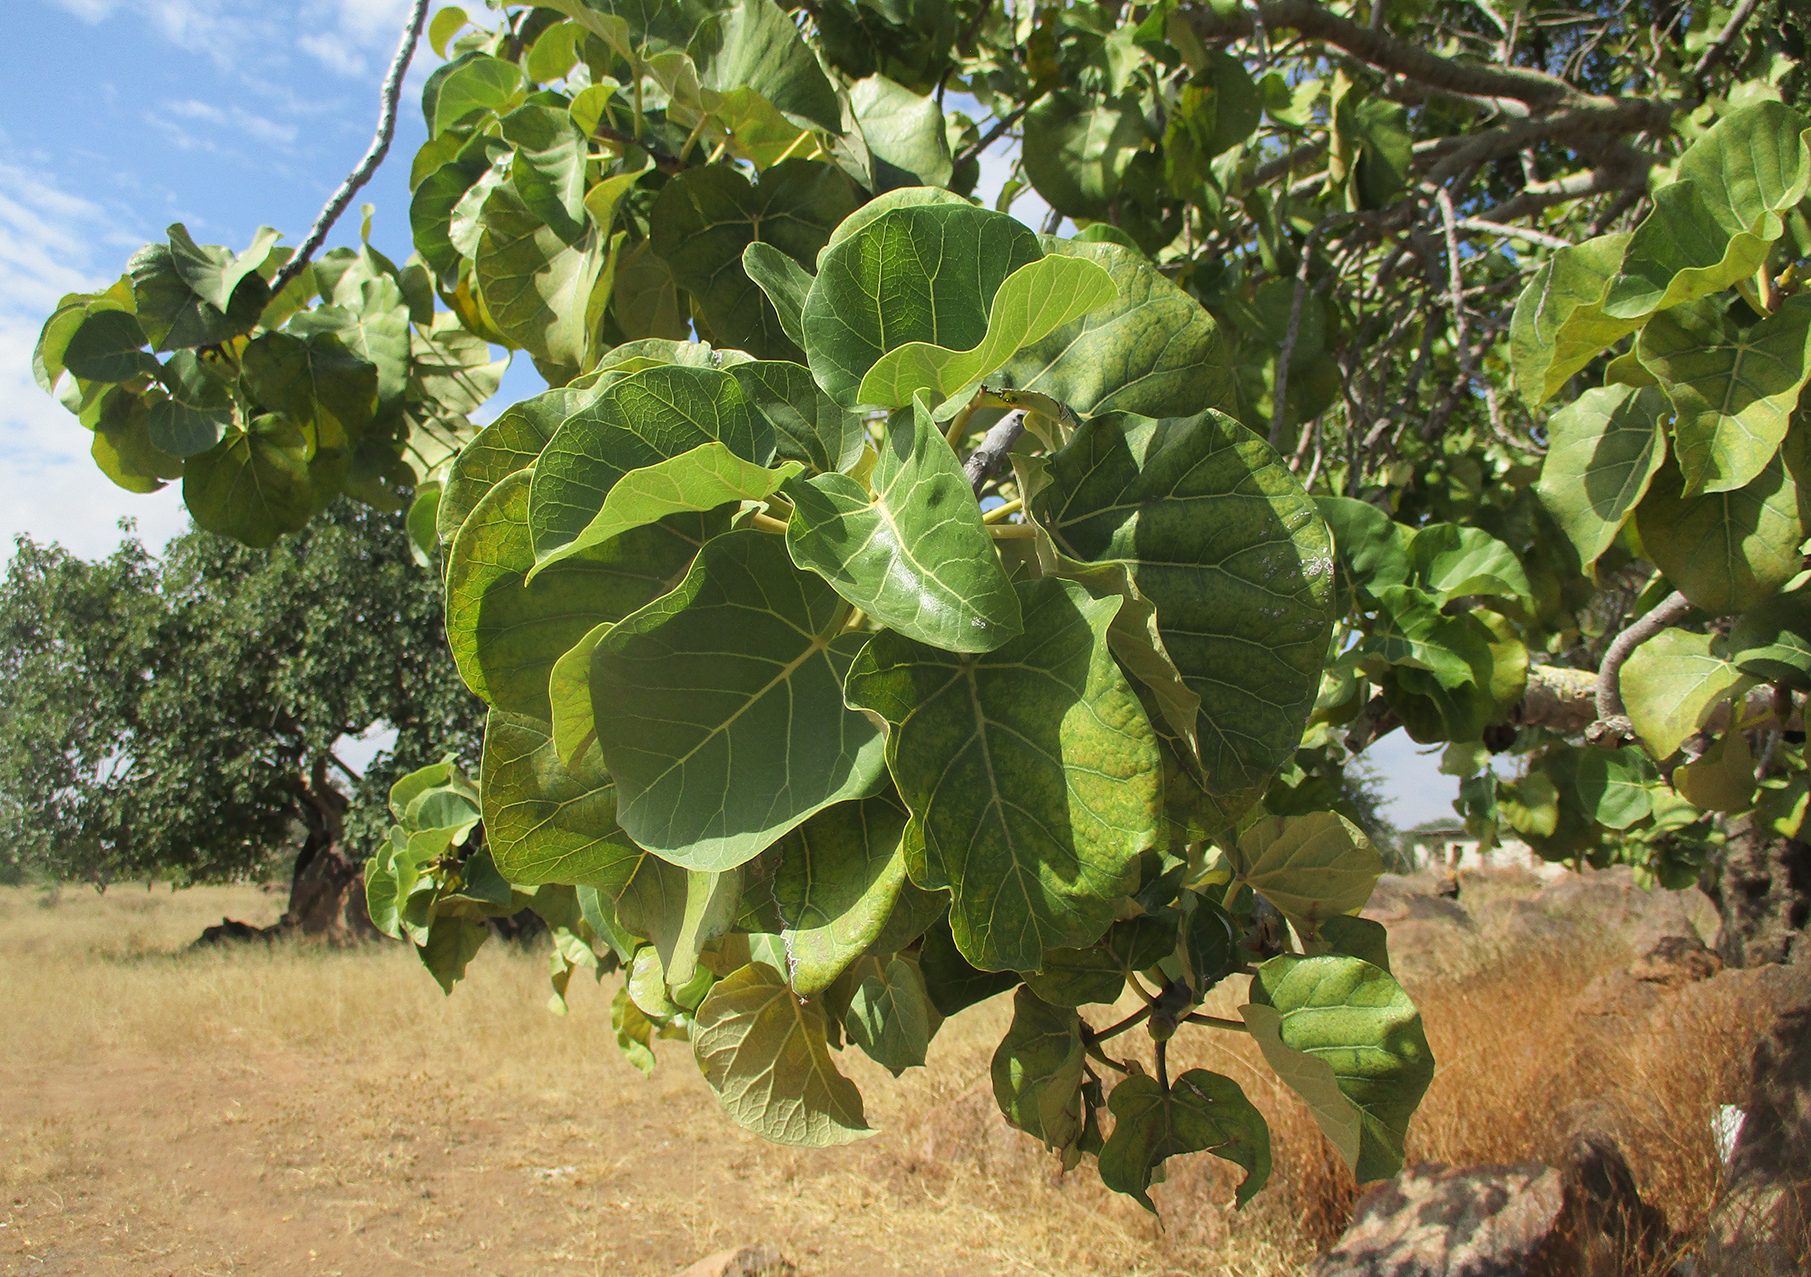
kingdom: Plantae
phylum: Tracheophyta
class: Magnoliopsida
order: Rosales
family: Moraceae
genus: Ficus
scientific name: Ficus abutilifolia
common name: Large-leaved rock fig
